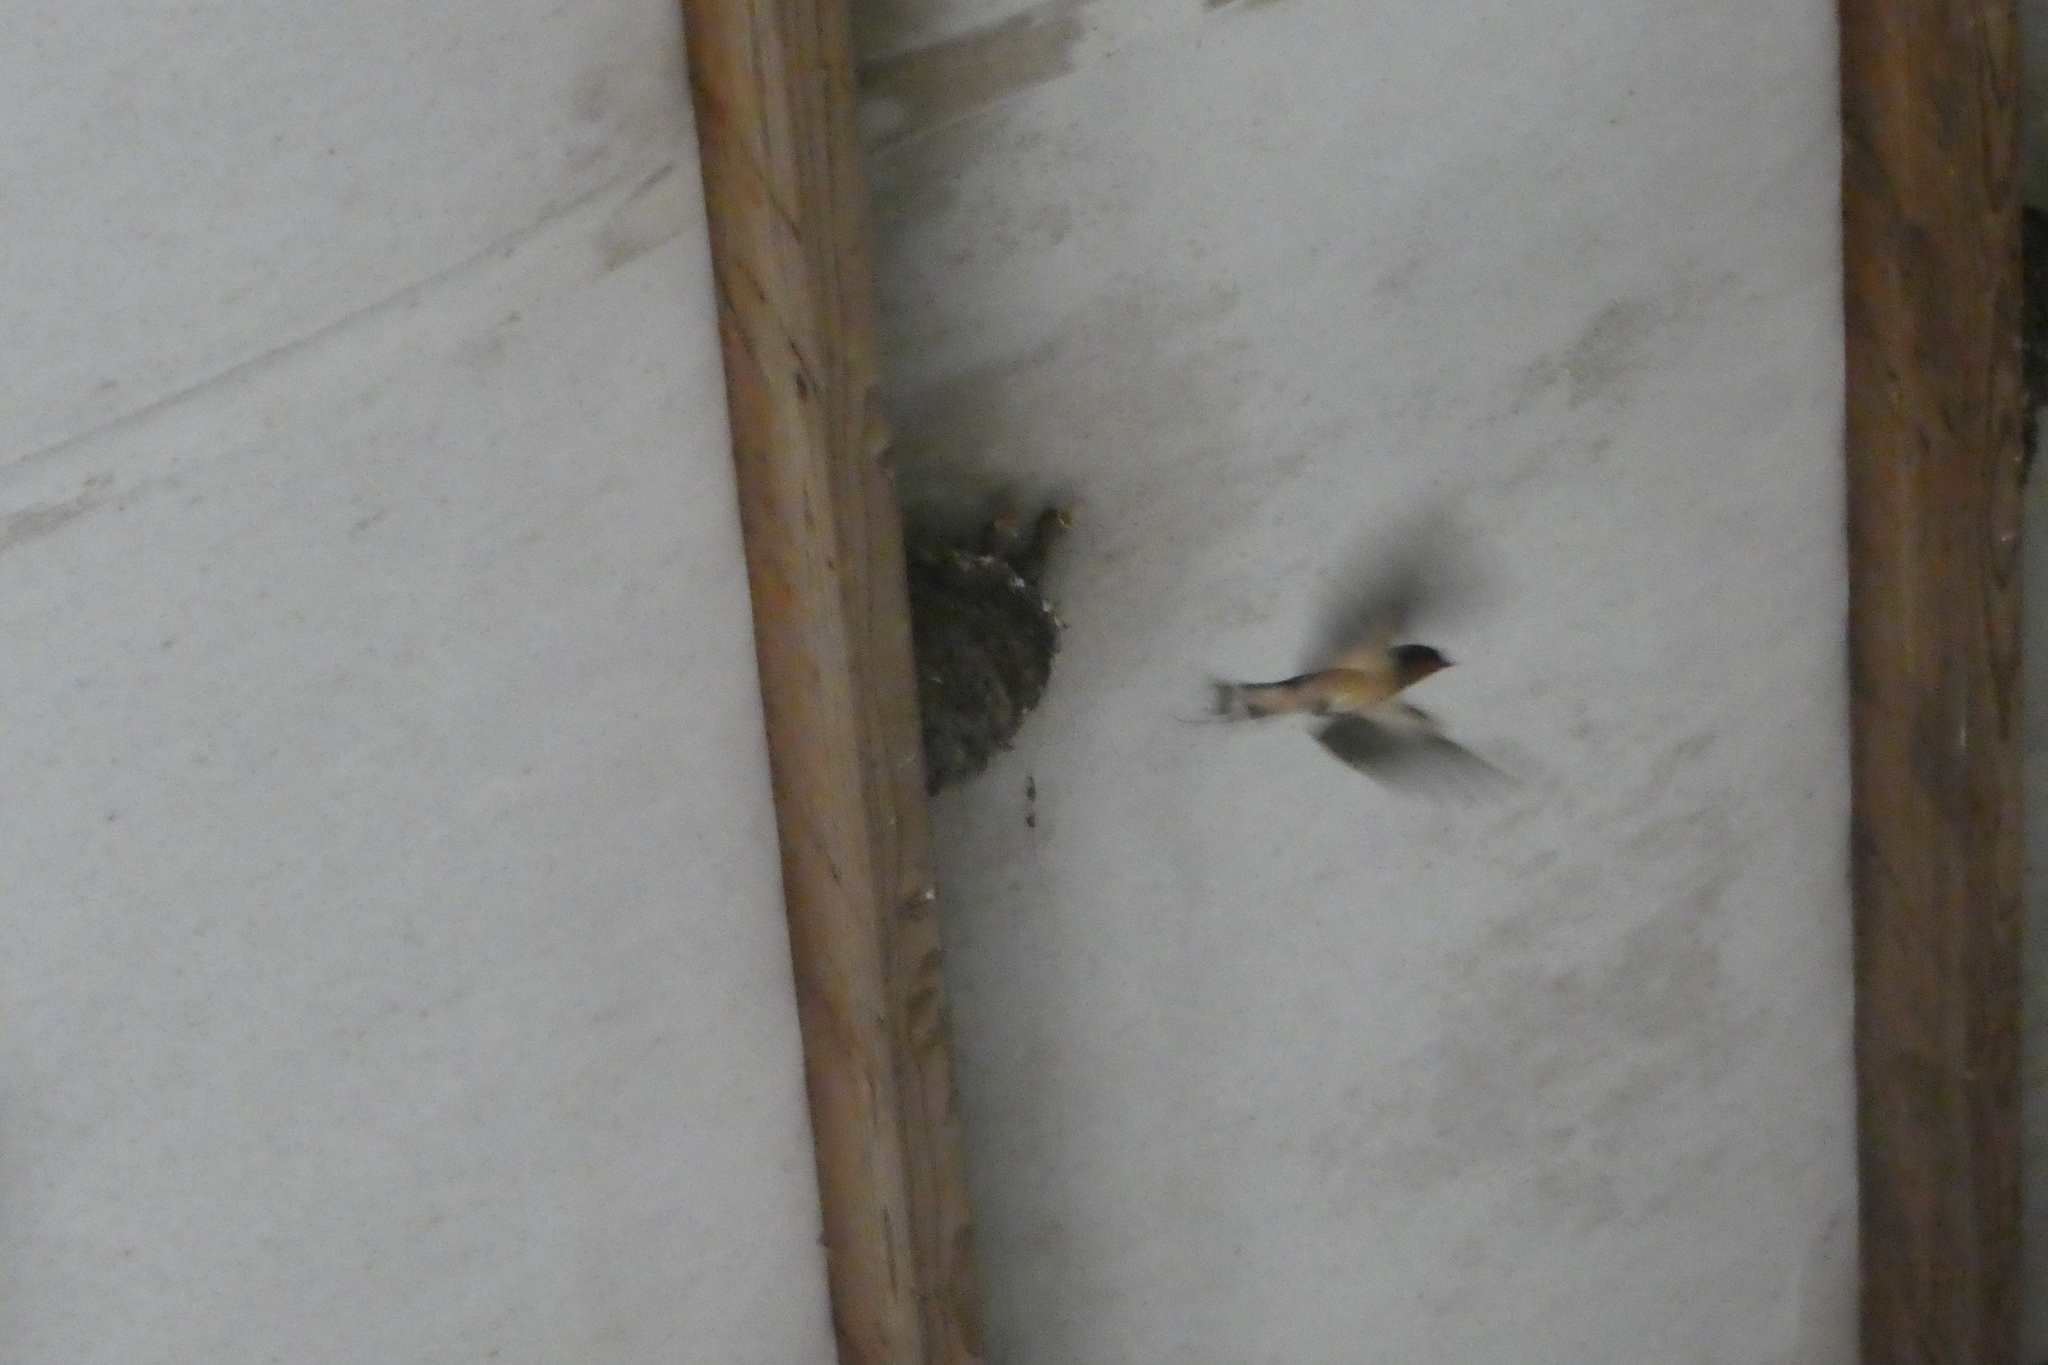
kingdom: Animalia
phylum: Chordata
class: Aves
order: Passeriformes
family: Hirundinidae
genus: Hirundo
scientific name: Hirundo rustica
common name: Barn swallow
